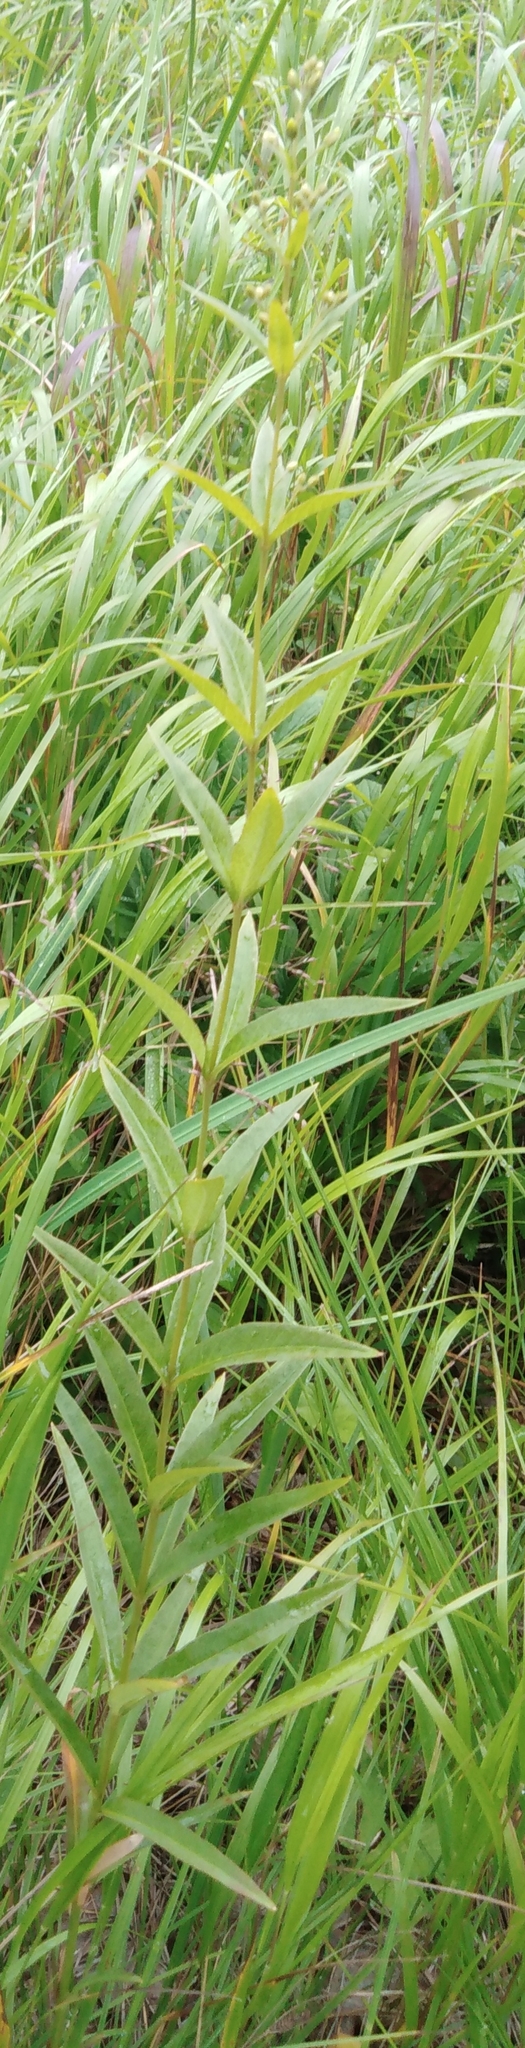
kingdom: Plantae
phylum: Tracheophyta
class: Magnoliopsida
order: Ericales
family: Primulaceae
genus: Lysimachia
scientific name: Lysimachia davurica
